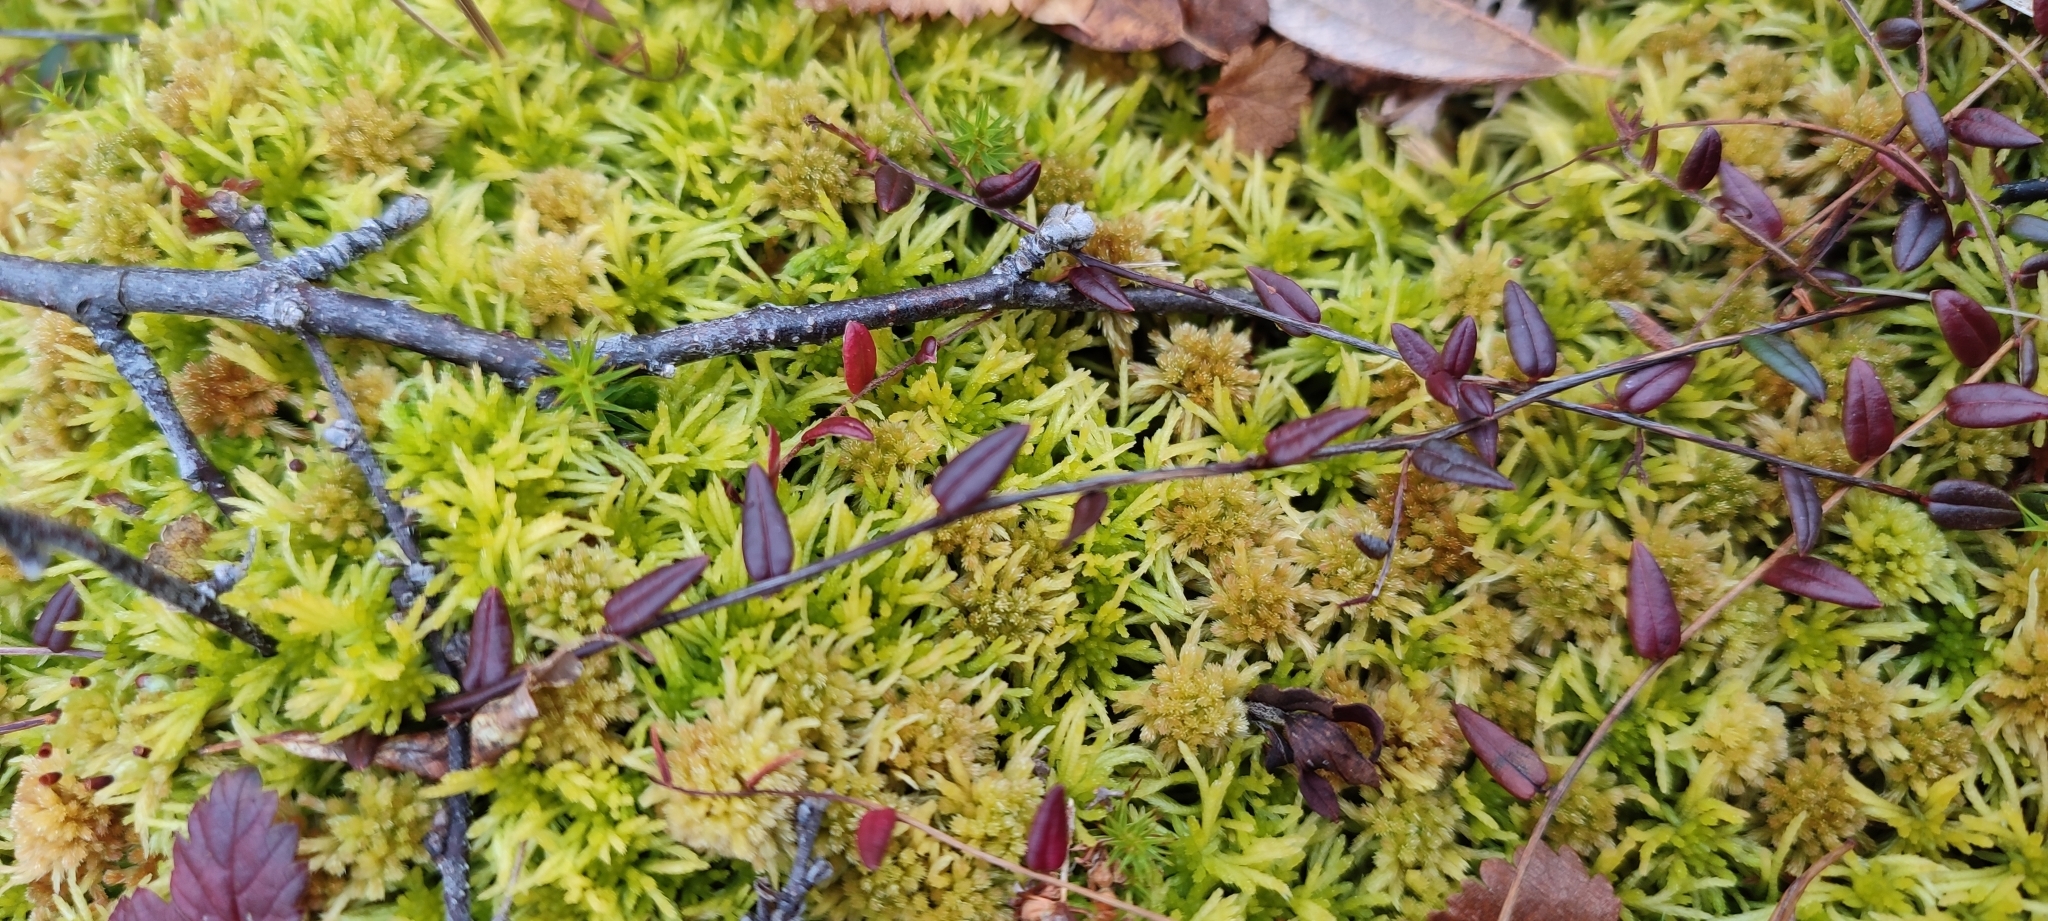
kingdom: Plantae
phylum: Tracheophyta
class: Magnoliopsida
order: Ericales
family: Ericaceae
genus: Vaccinium
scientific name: Vaccinium oxycoccos
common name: Cranberry
